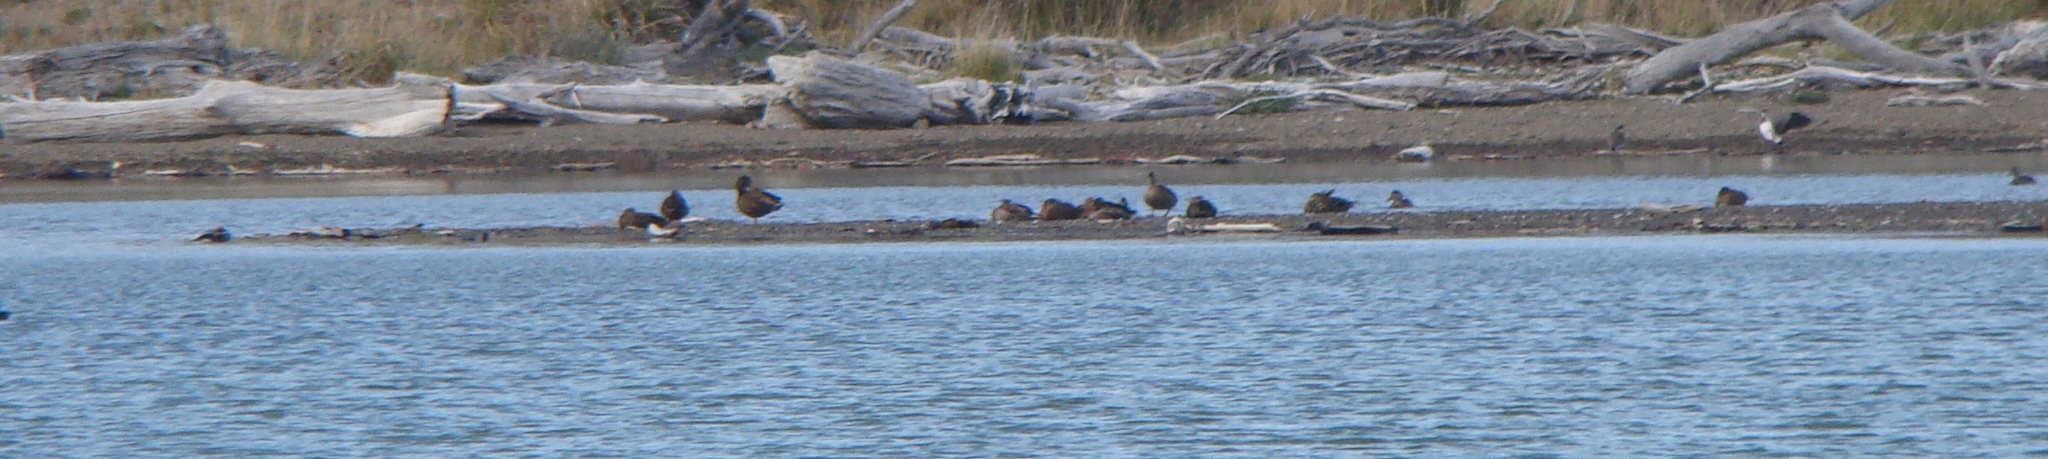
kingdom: Animalia
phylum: Chordata
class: Aves
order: Anseriformes
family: Anatidae
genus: Anas
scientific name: Anas platyrhynchos
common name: Mallard
